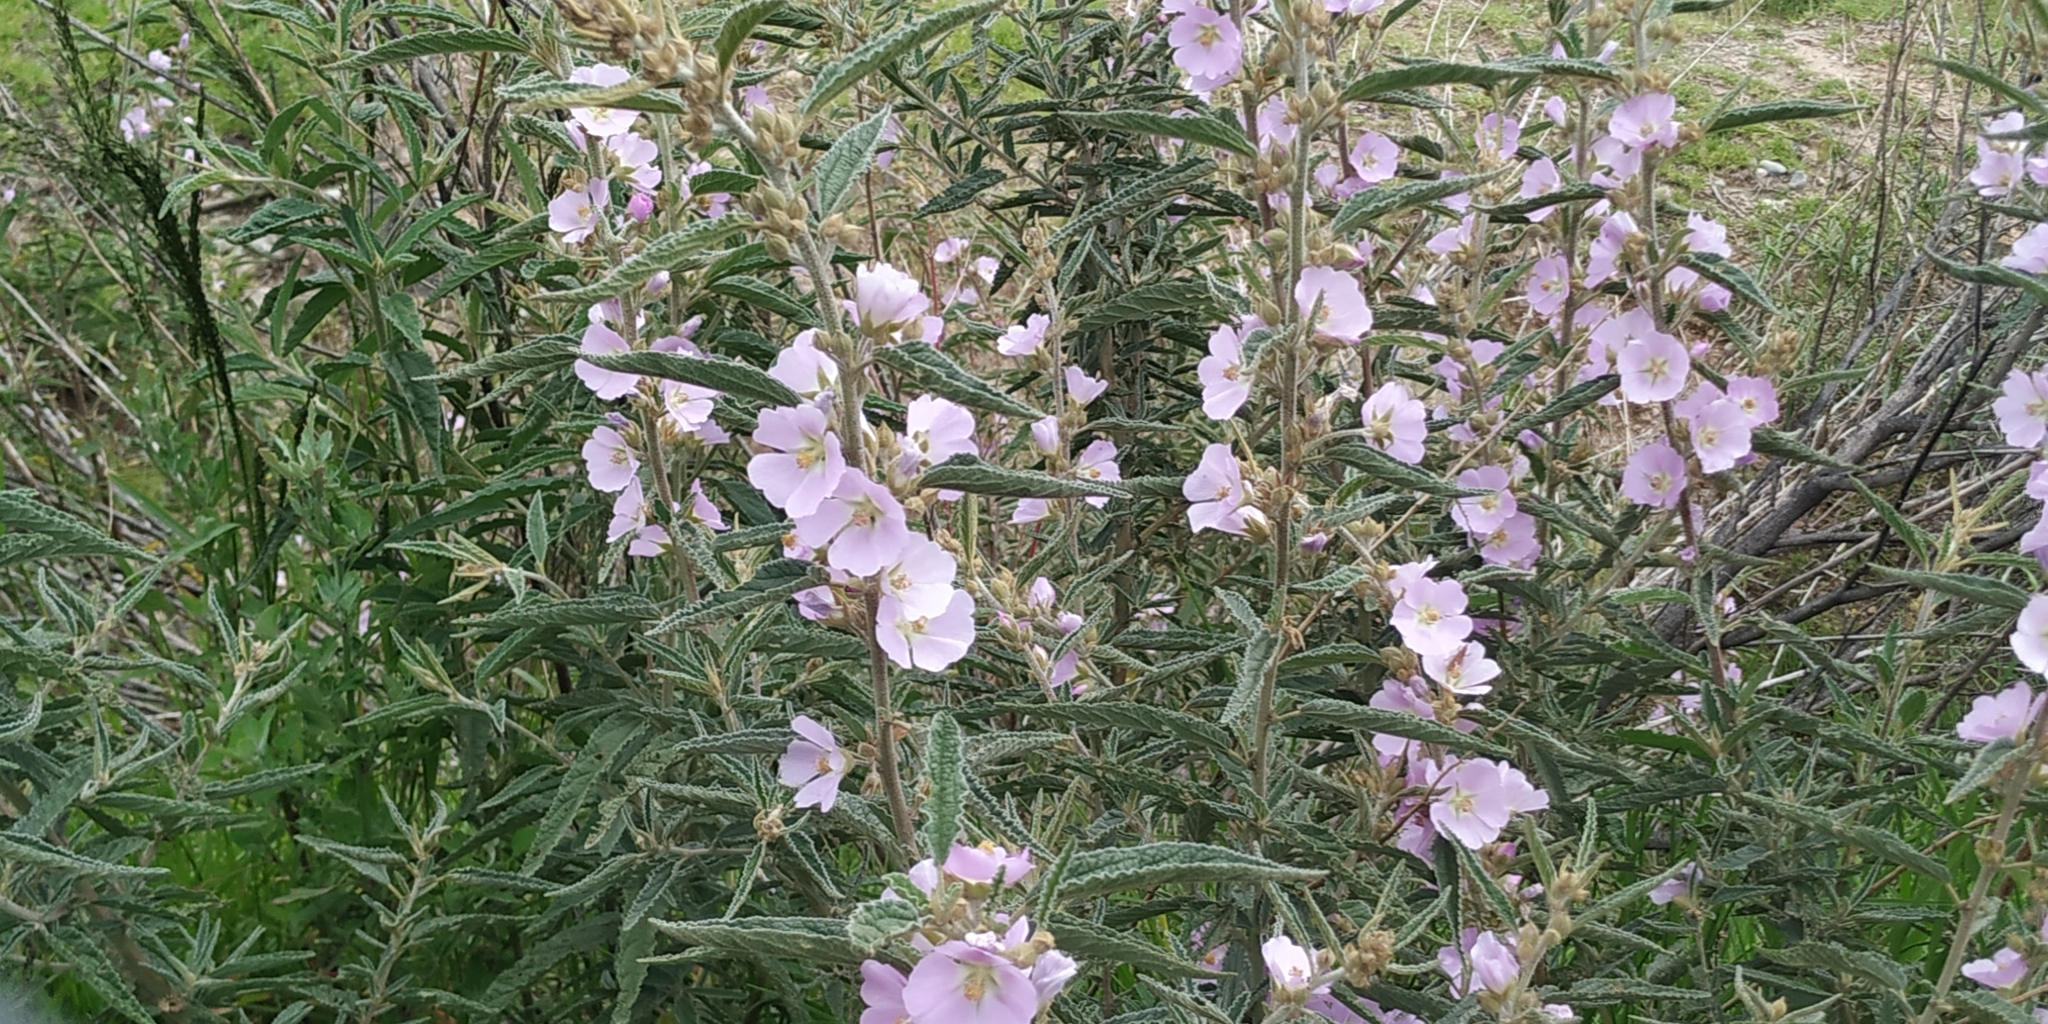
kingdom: Plantae
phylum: Tracheophyta
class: Magnoliopsida
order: Malvales
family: Malvaceae
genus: Sphaeralcea
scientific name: Sphaeralcea angustifolia
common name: Copper globe-mallow
